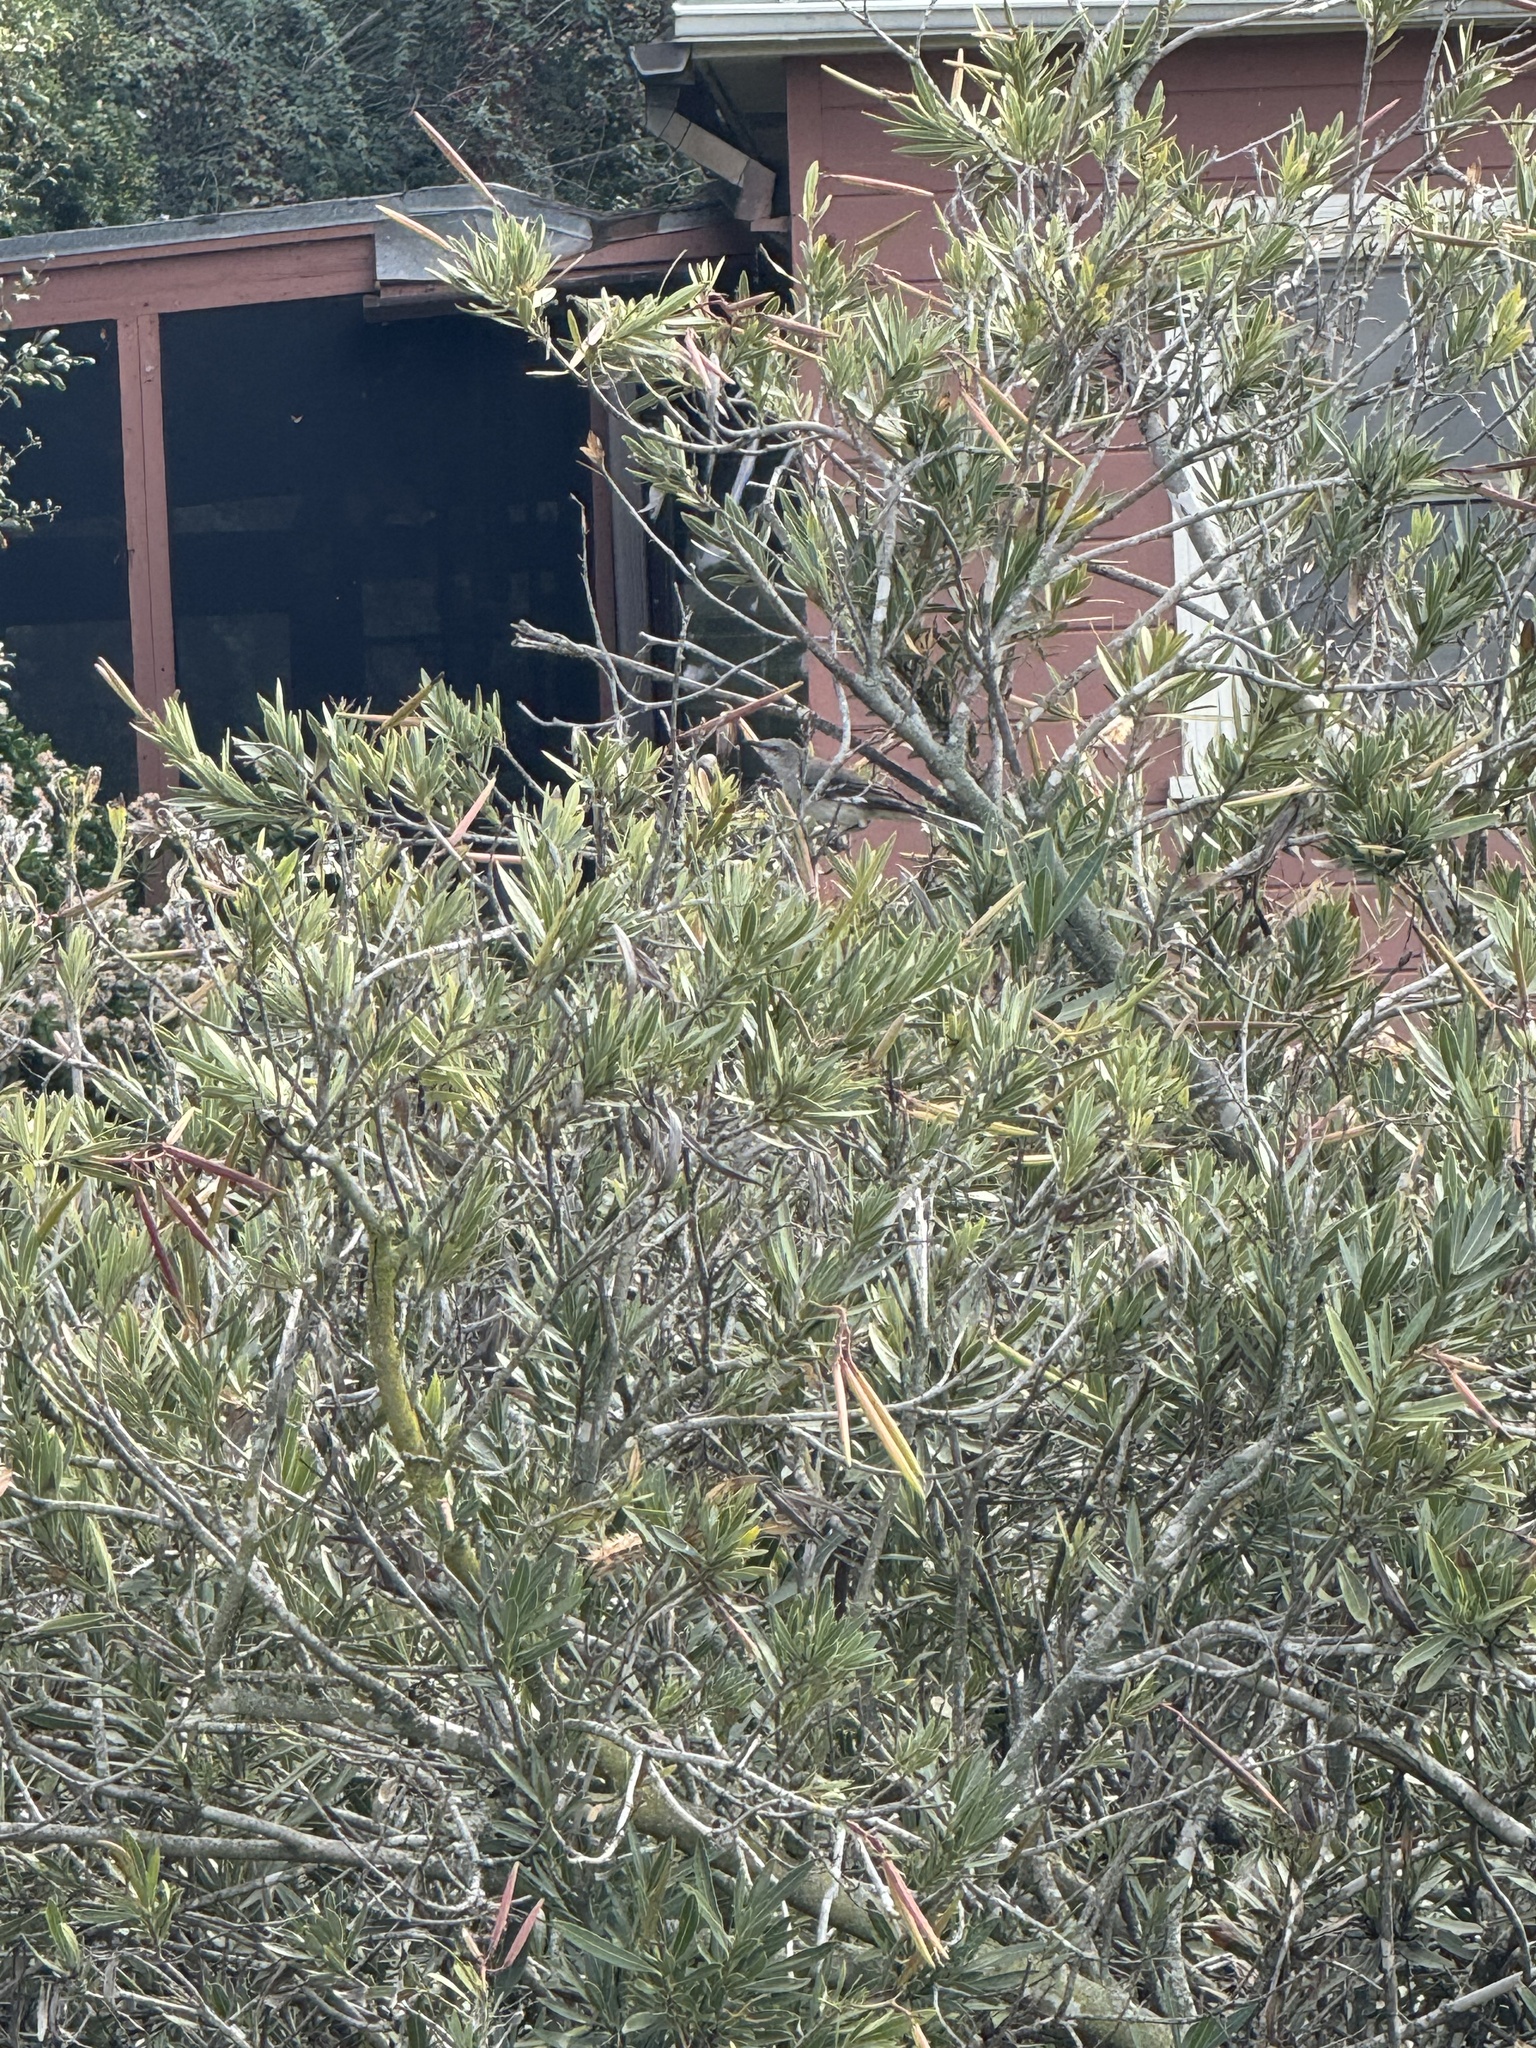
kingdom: Animalia
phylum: Chordata
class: Aves
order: Passeriformes
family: Mimidae
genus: Mimus
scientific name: Mimus polyglottos
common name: Northern mockingbird
